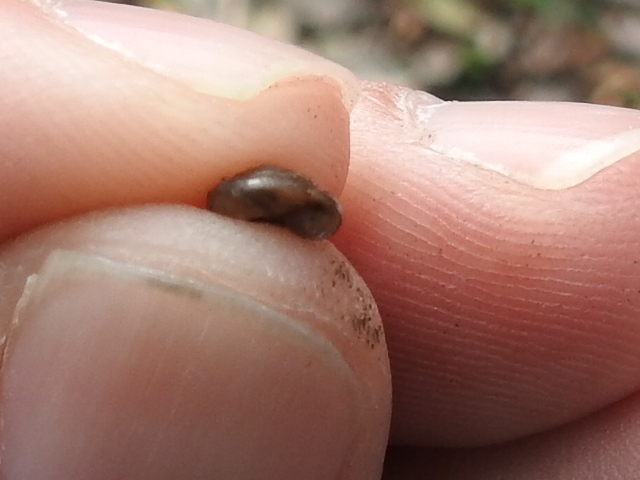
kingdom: Animalia
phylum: Mollusca
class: Gastropoda
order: Stylommatophora
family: Gastrodontidae
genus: Zonitoides
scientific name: Zonitoides arboreus
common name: Quick gloss
